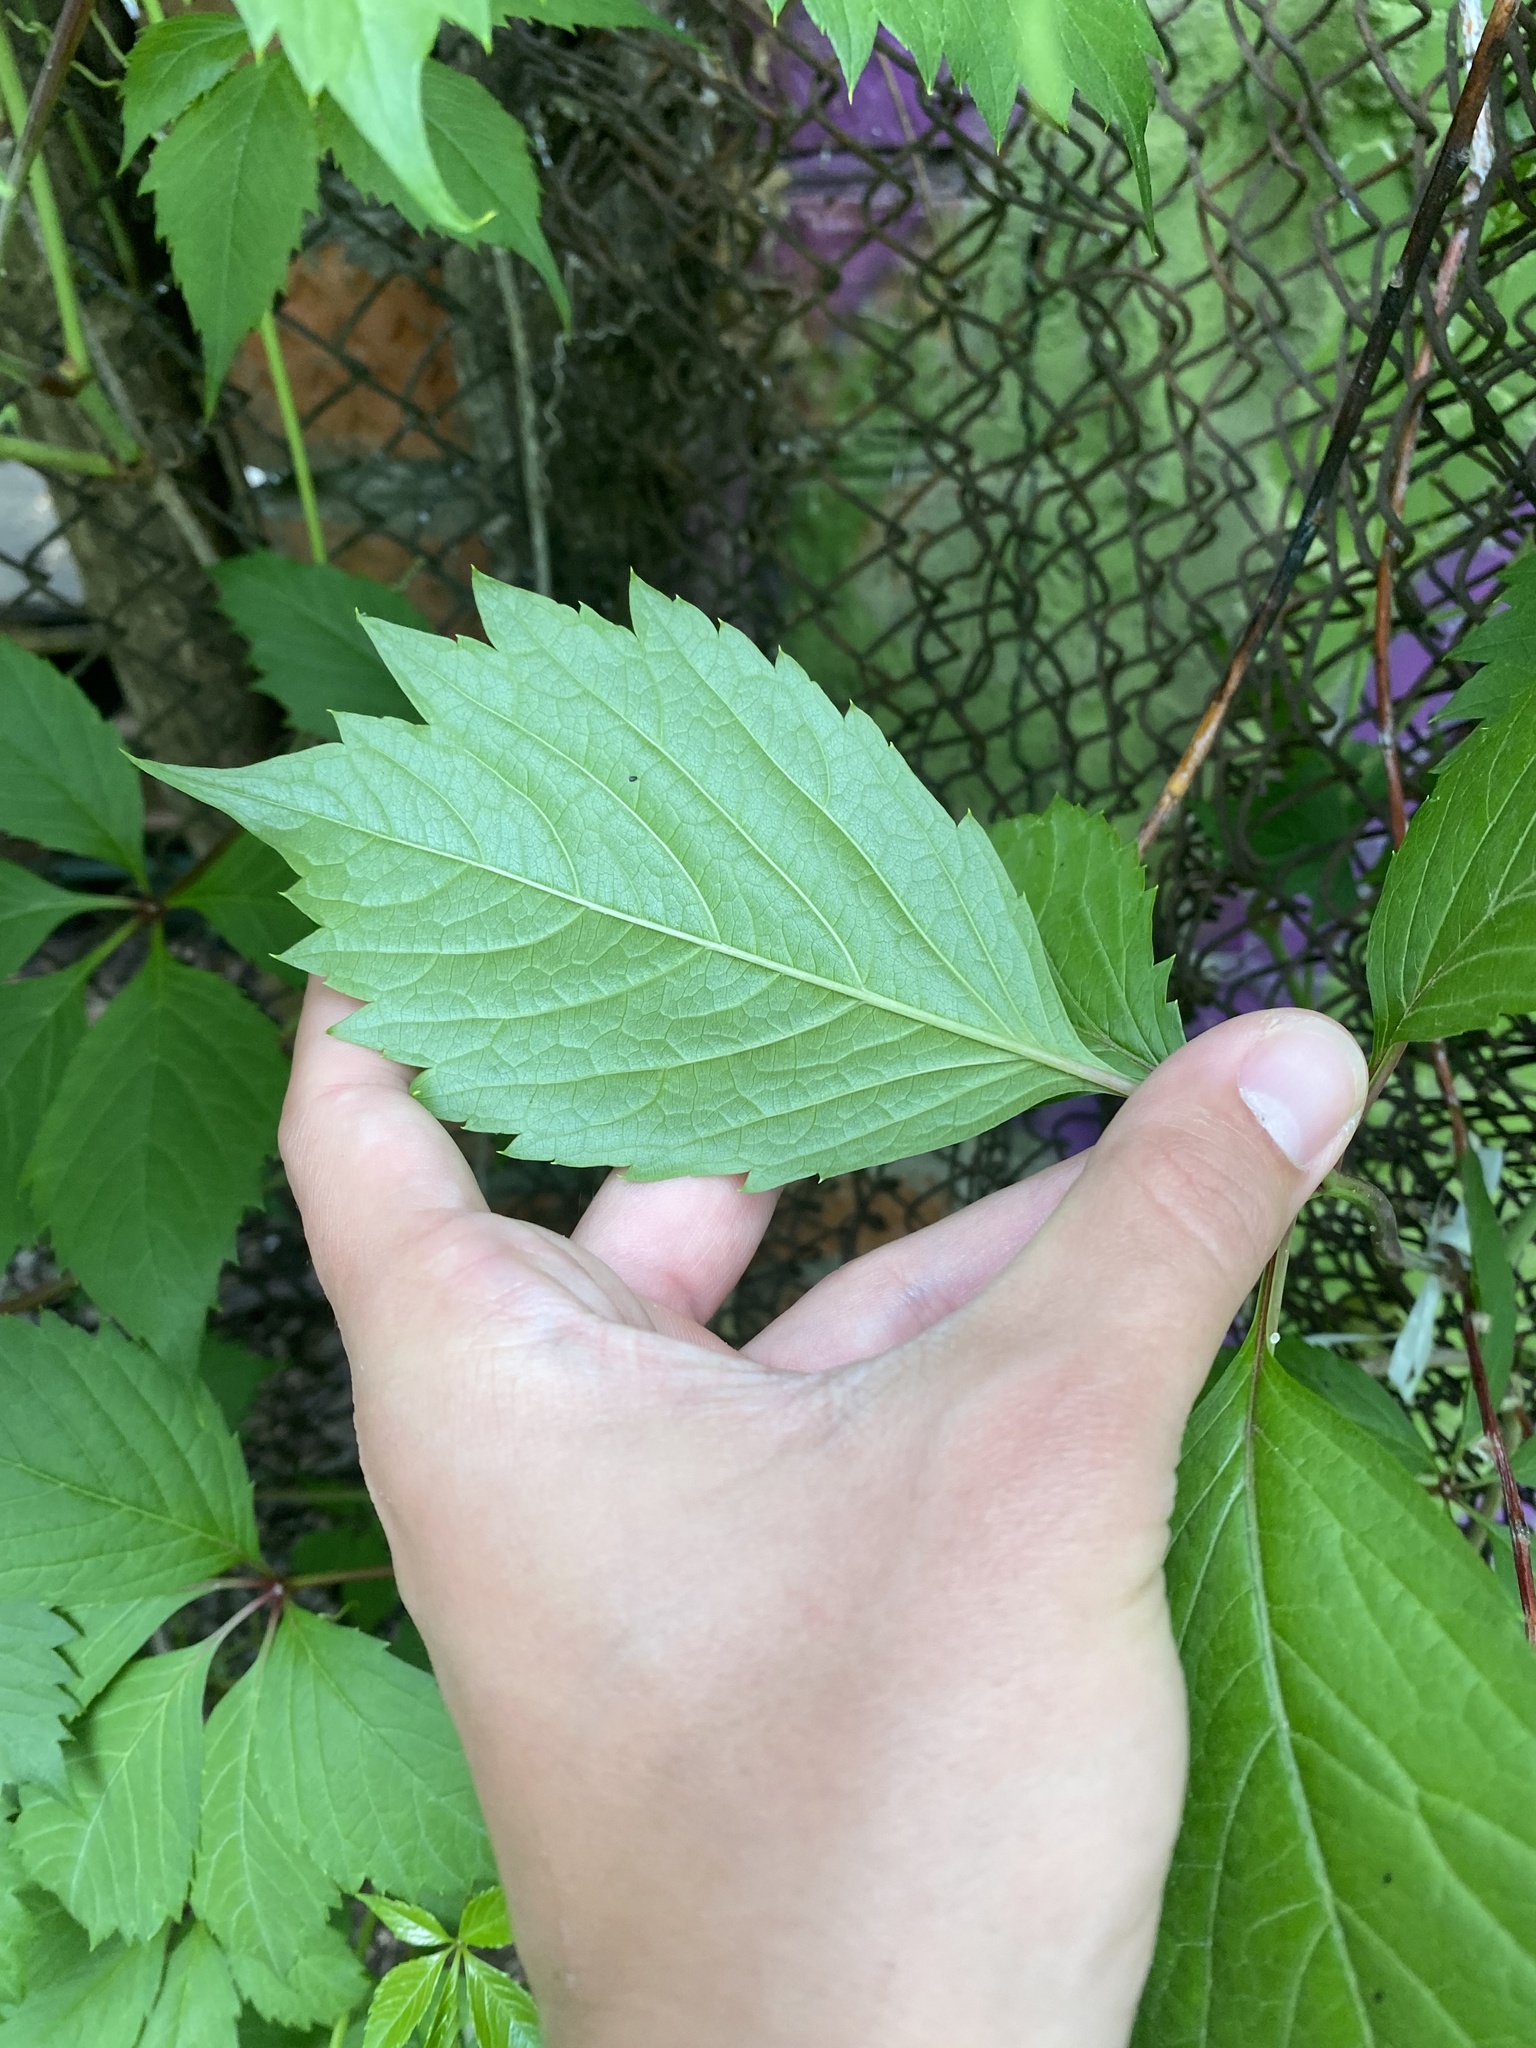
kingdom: Plantae
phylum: Tracheophyta
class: Magnoliopsida
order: Vitales
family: Vitaceae
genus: Parthenocissus
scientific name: Parthenocissus inserta
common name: False virginia-creeper
